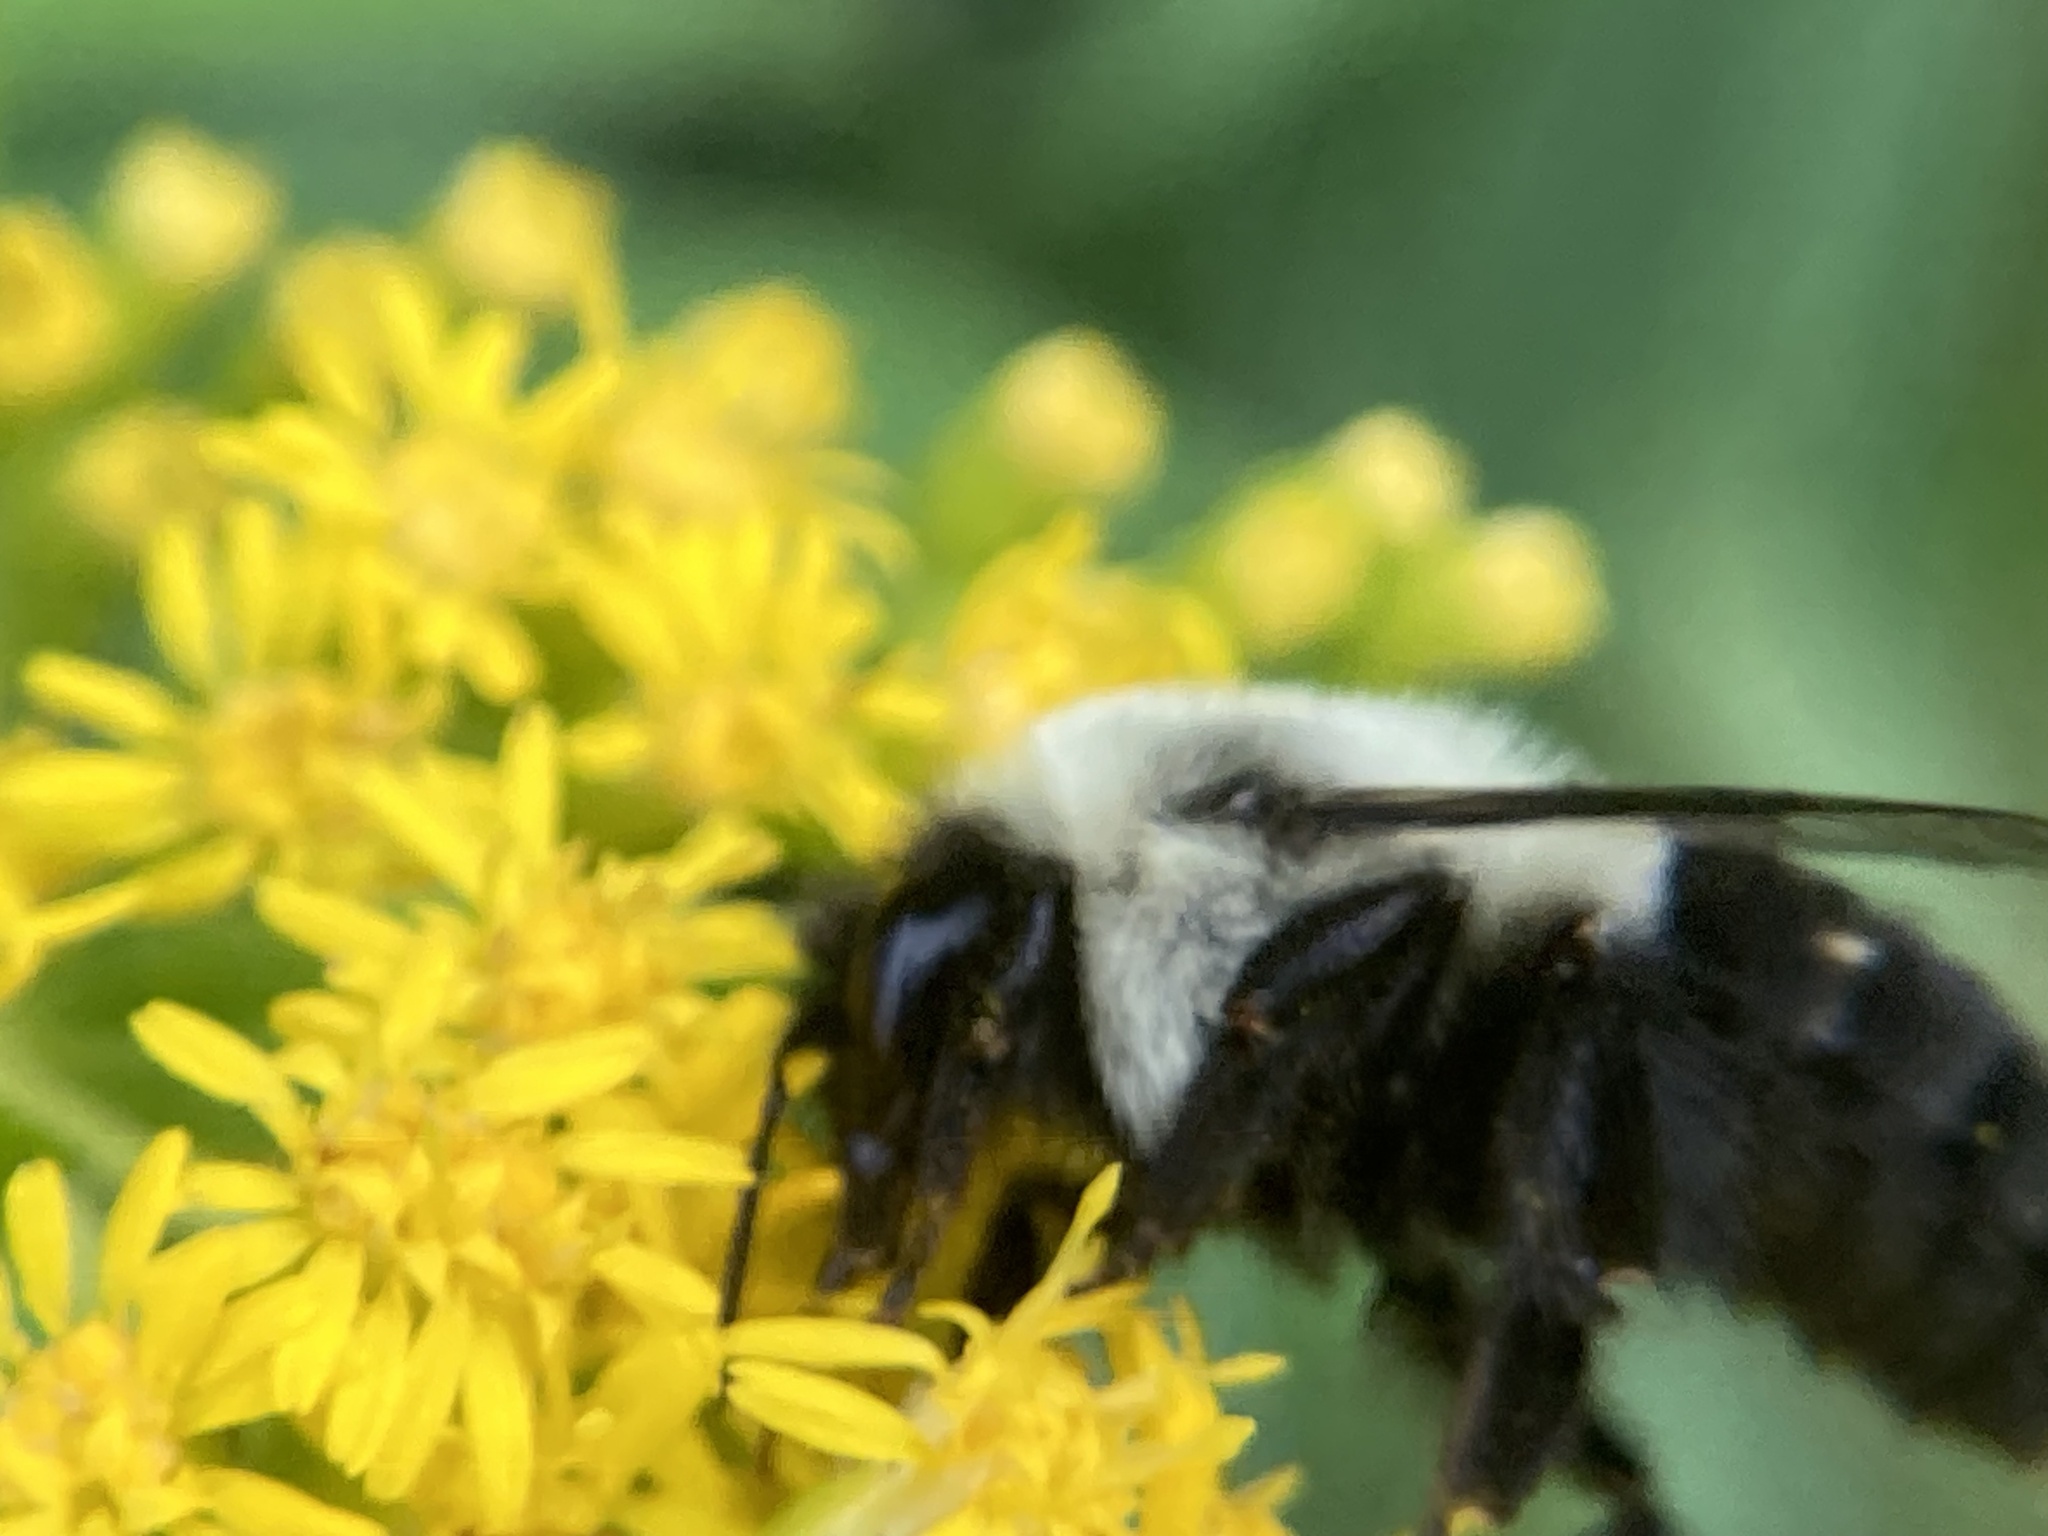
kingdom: Animalia
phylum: Arthropoda
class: Insecta
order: Hymenoptera
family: Apidae
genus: Bombus
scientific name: Bombus impatiens
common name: Common eastern bumble bee
